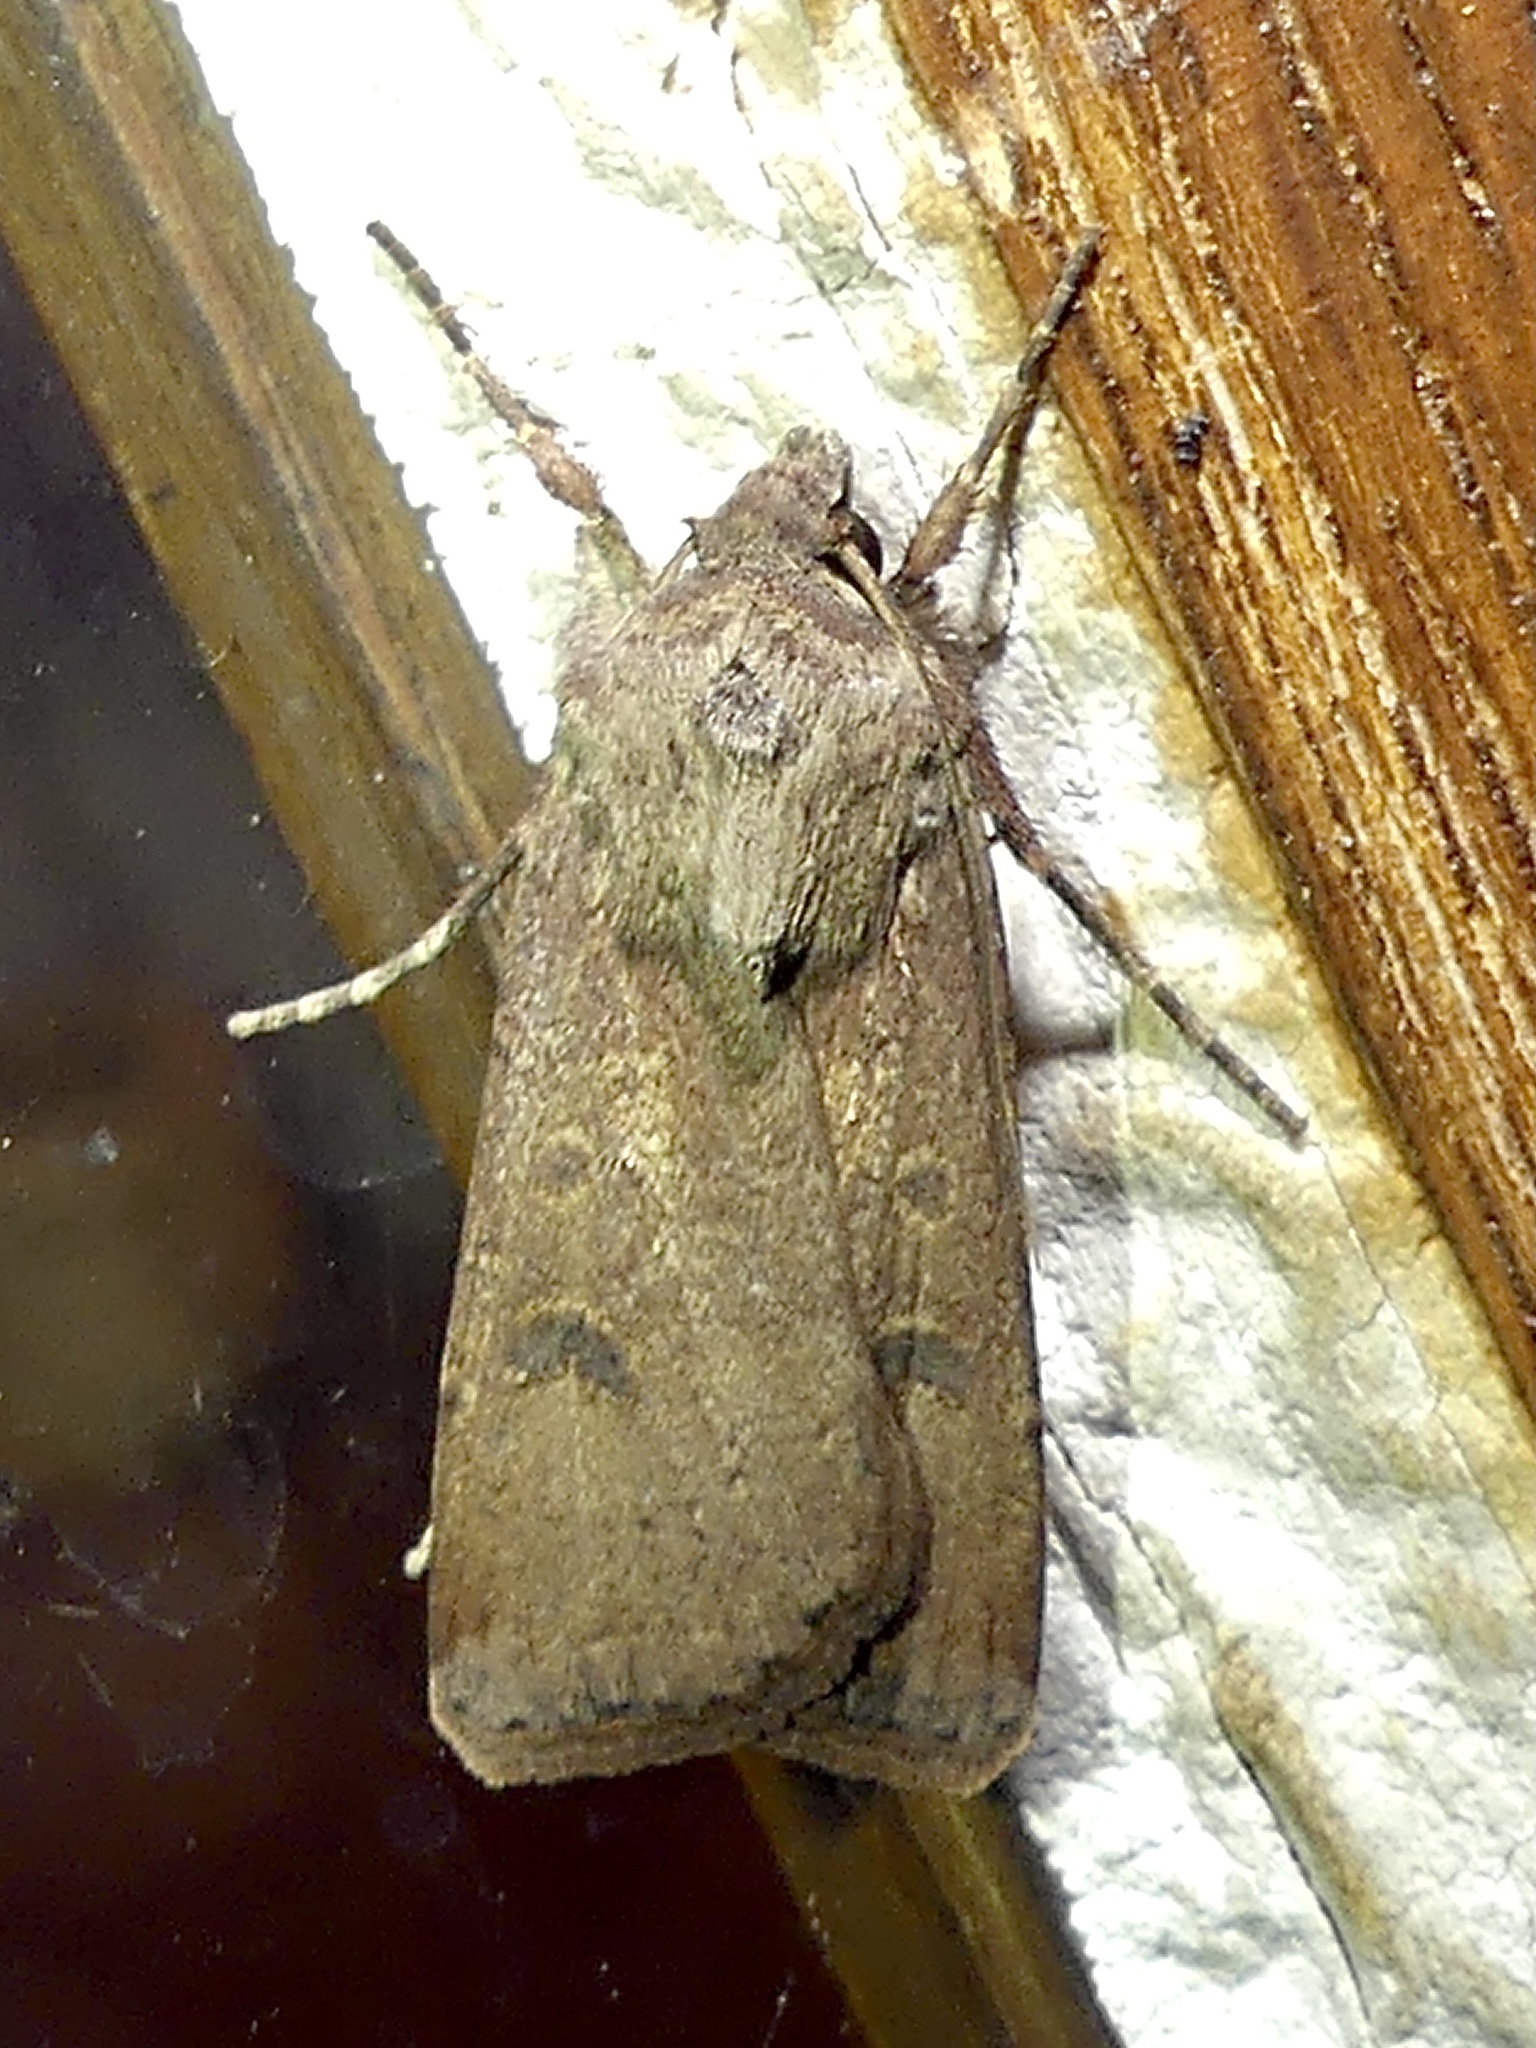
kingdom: Animalia
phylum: Arthropoda
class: Insecta
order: Lepidoptera
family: Noctuidae
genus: Agrotis
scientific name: Agrotis trux
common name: Crescent dart
